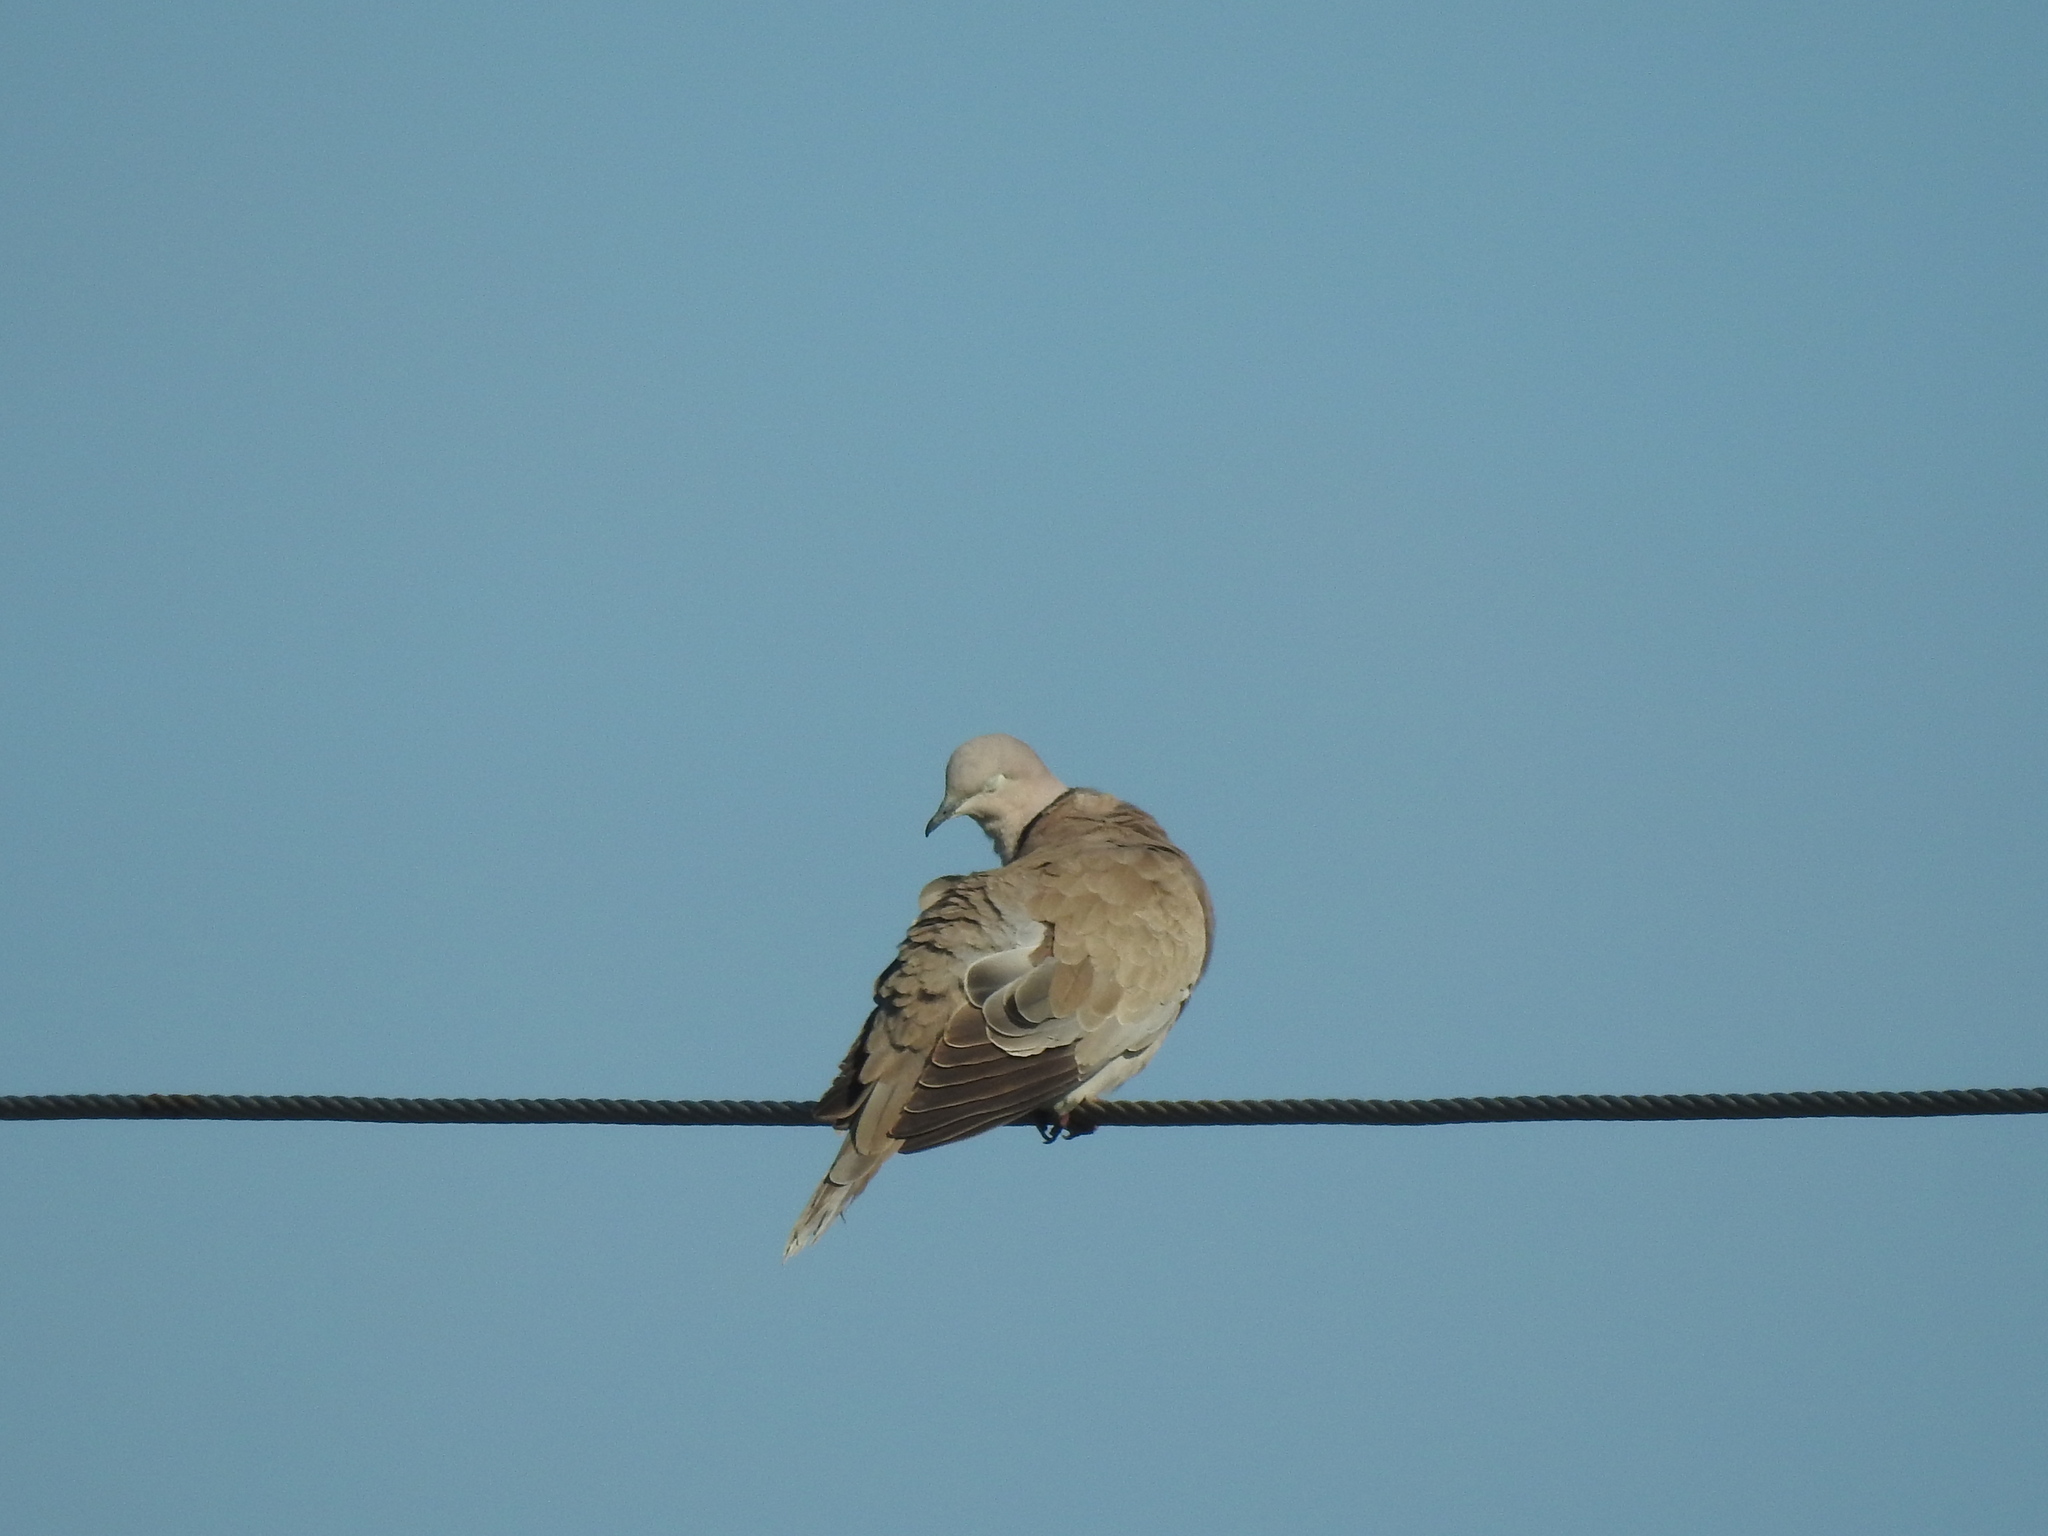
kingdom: Animalia
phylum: Chordata
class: Aves
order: Columbiformes
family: Columbidae
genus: Streptopelia
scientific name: Streptopelia decaocto
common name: Eurasian collared dove
